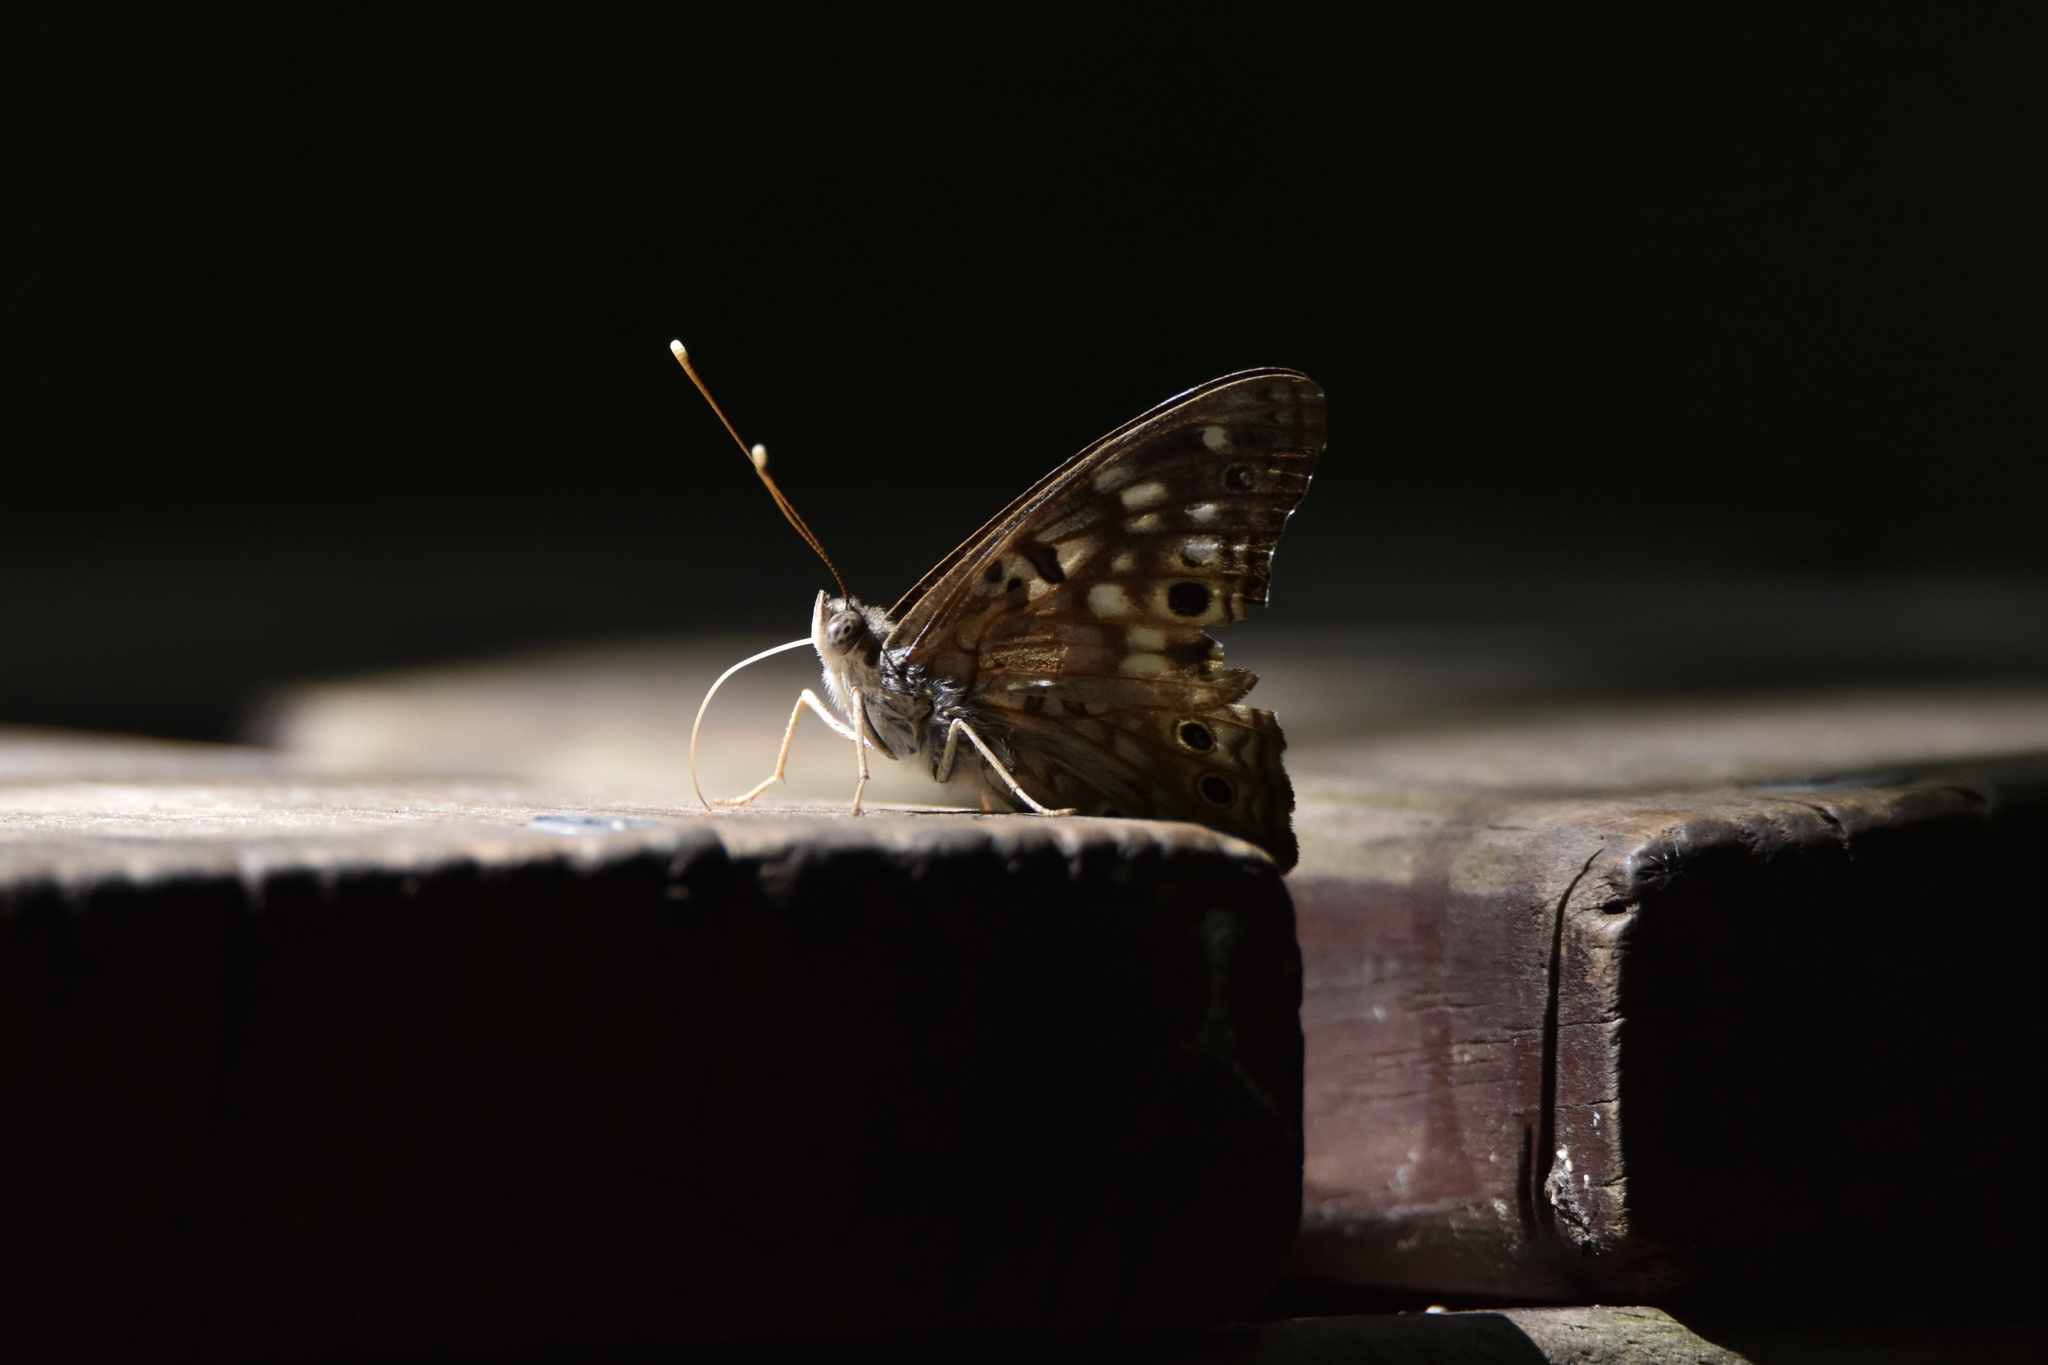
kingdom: Animalia
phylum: Arthropoda
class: Insecta
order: Lepidoptera
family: Nymphalidae
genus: Asterocampa
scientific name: Asterocampa celtis
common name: Hackberry emperor
